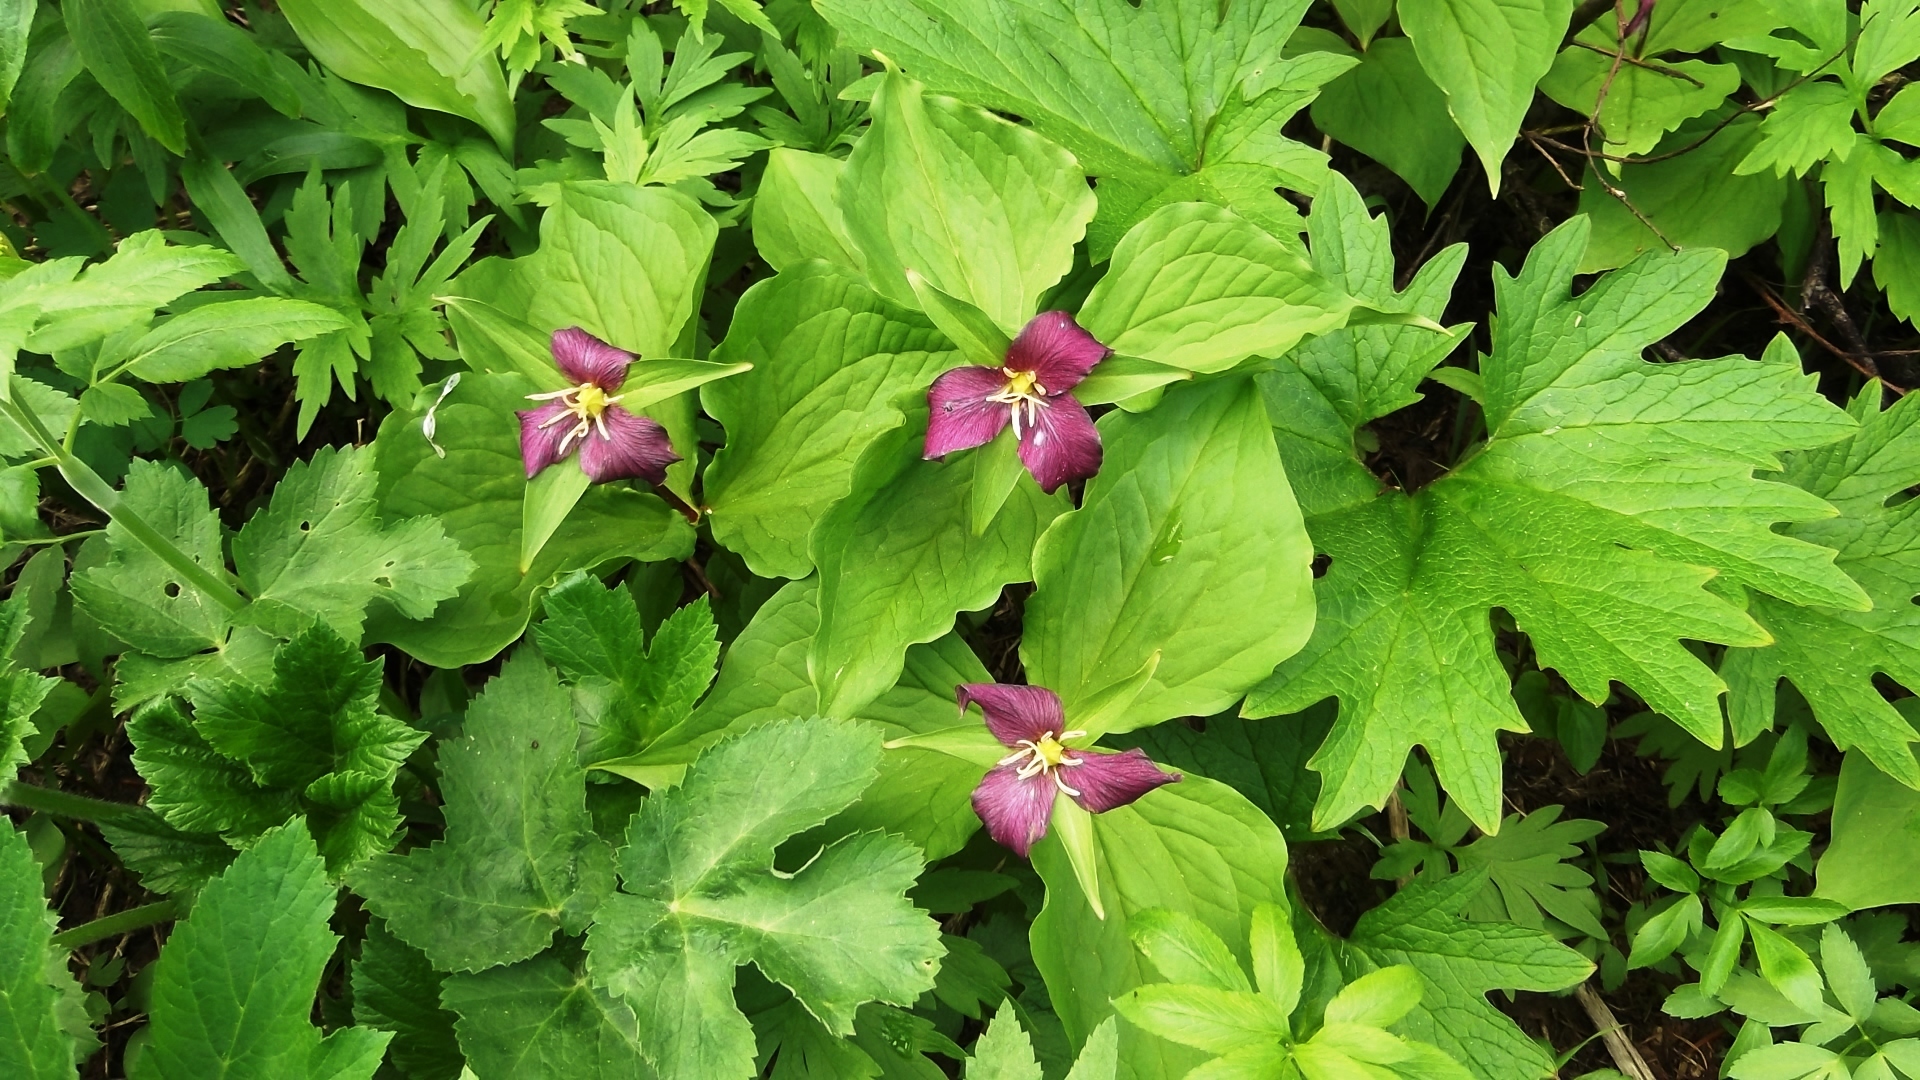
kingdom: Plantae
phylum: Tracheophyta
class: Liliopsida
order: Liliales
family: Melanthiaceae
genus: Trillium
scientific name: Trillium ovatum
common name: Pacific trillium
